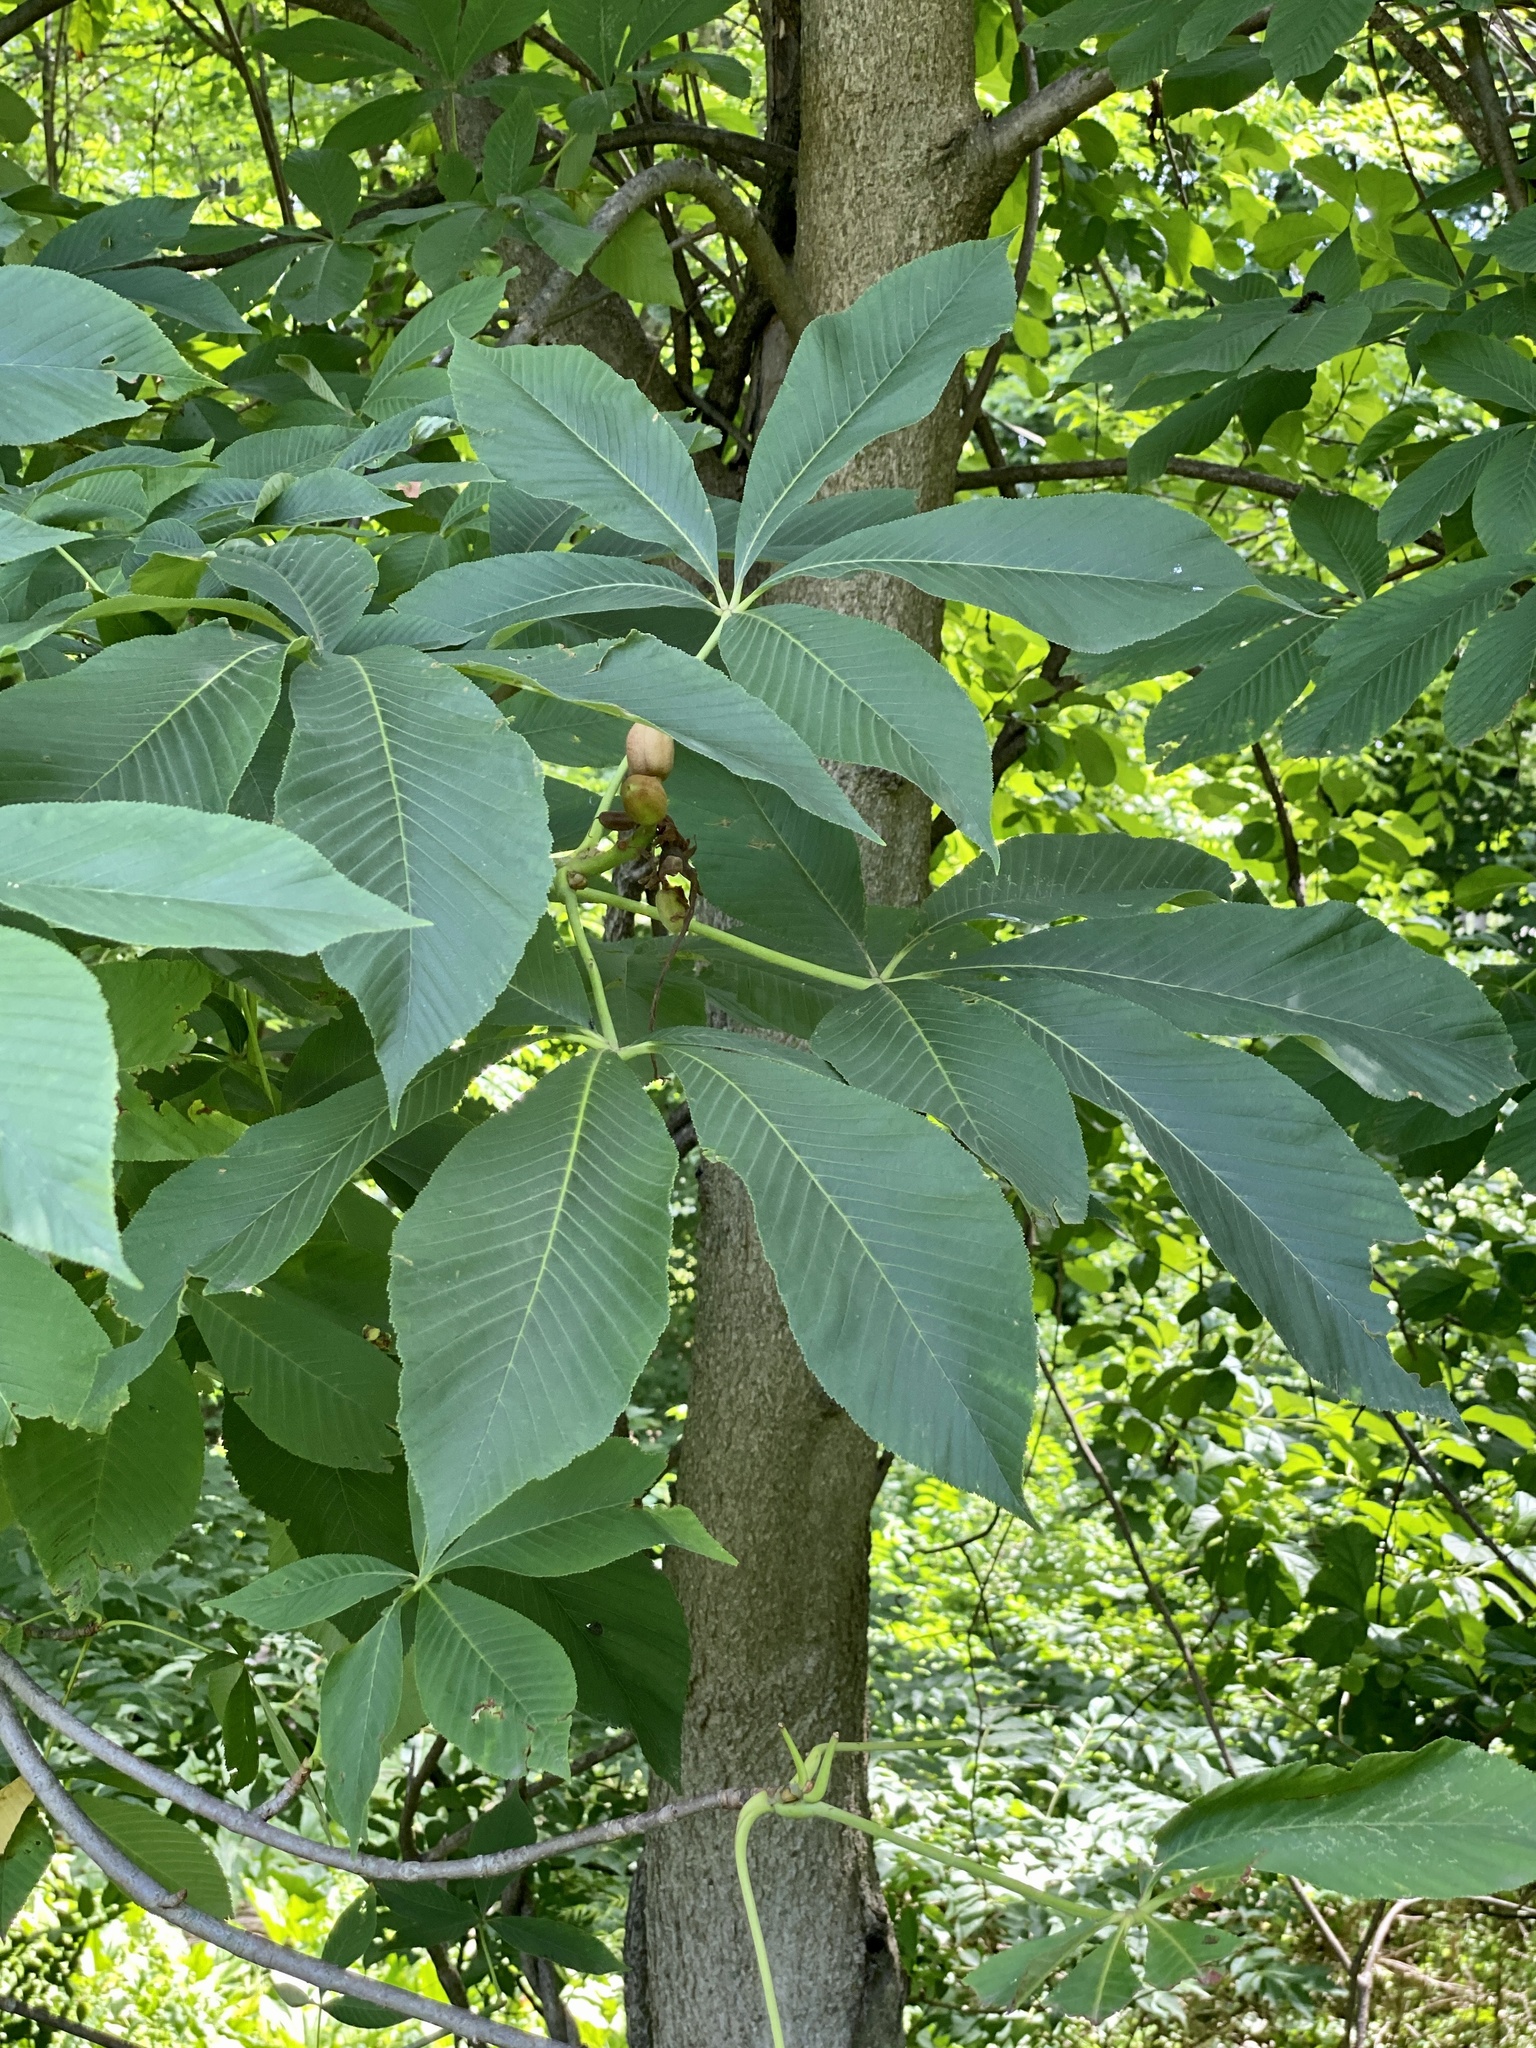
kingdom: Plantae
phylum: Tracheophyta
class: Magnoliopsida
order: Sapindales
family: Sapindaceae
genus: Aesculus
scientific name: Aesculus flava
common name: Yellow buckeye
